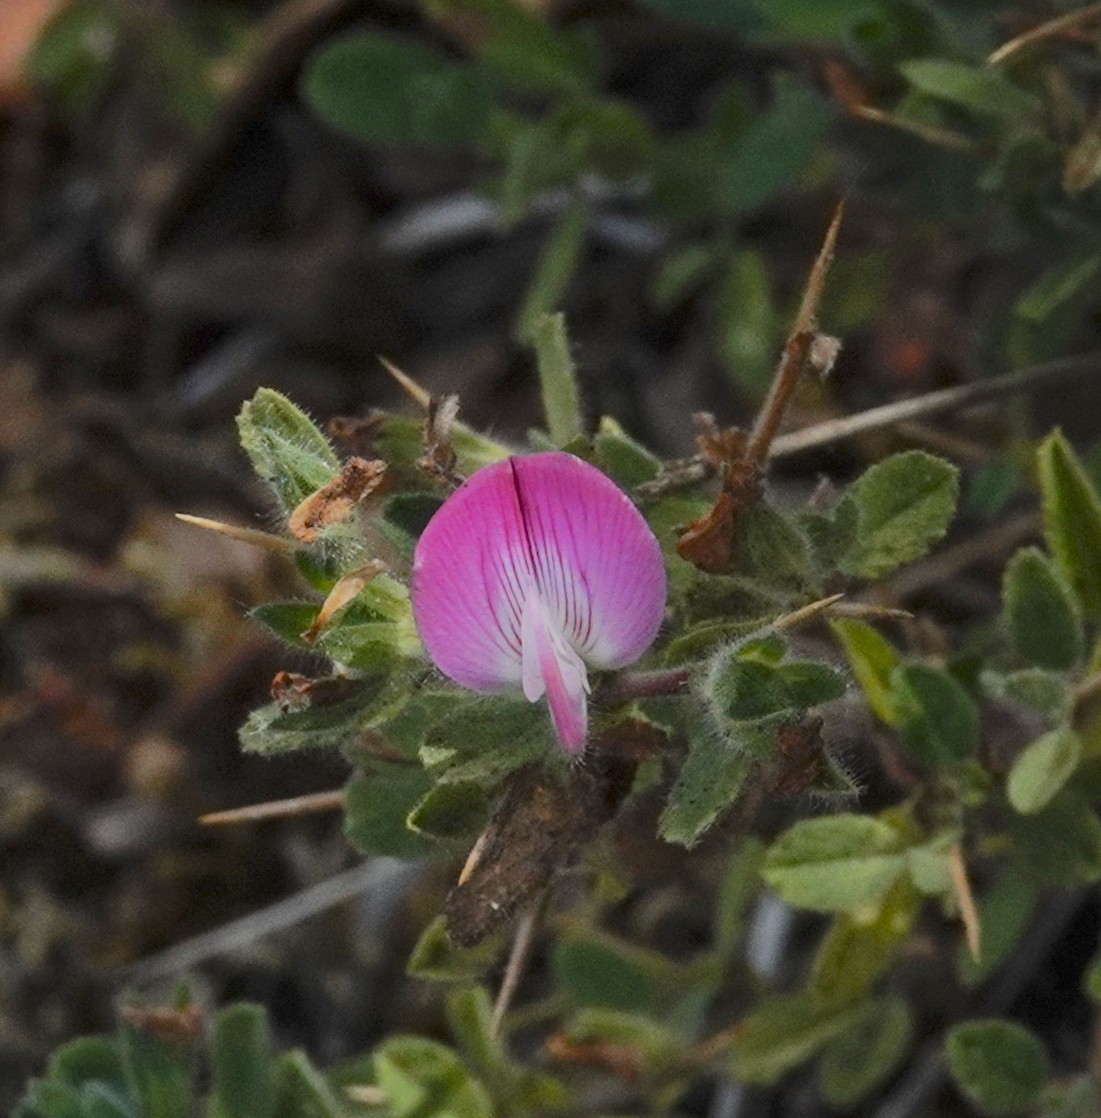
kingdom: Plantae
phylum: Tracheophyta
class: Magnoliopsida
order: Fabales
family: Fabaceae
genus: Ononis
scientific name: Ononis spinosa
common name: Spiny restharrow
